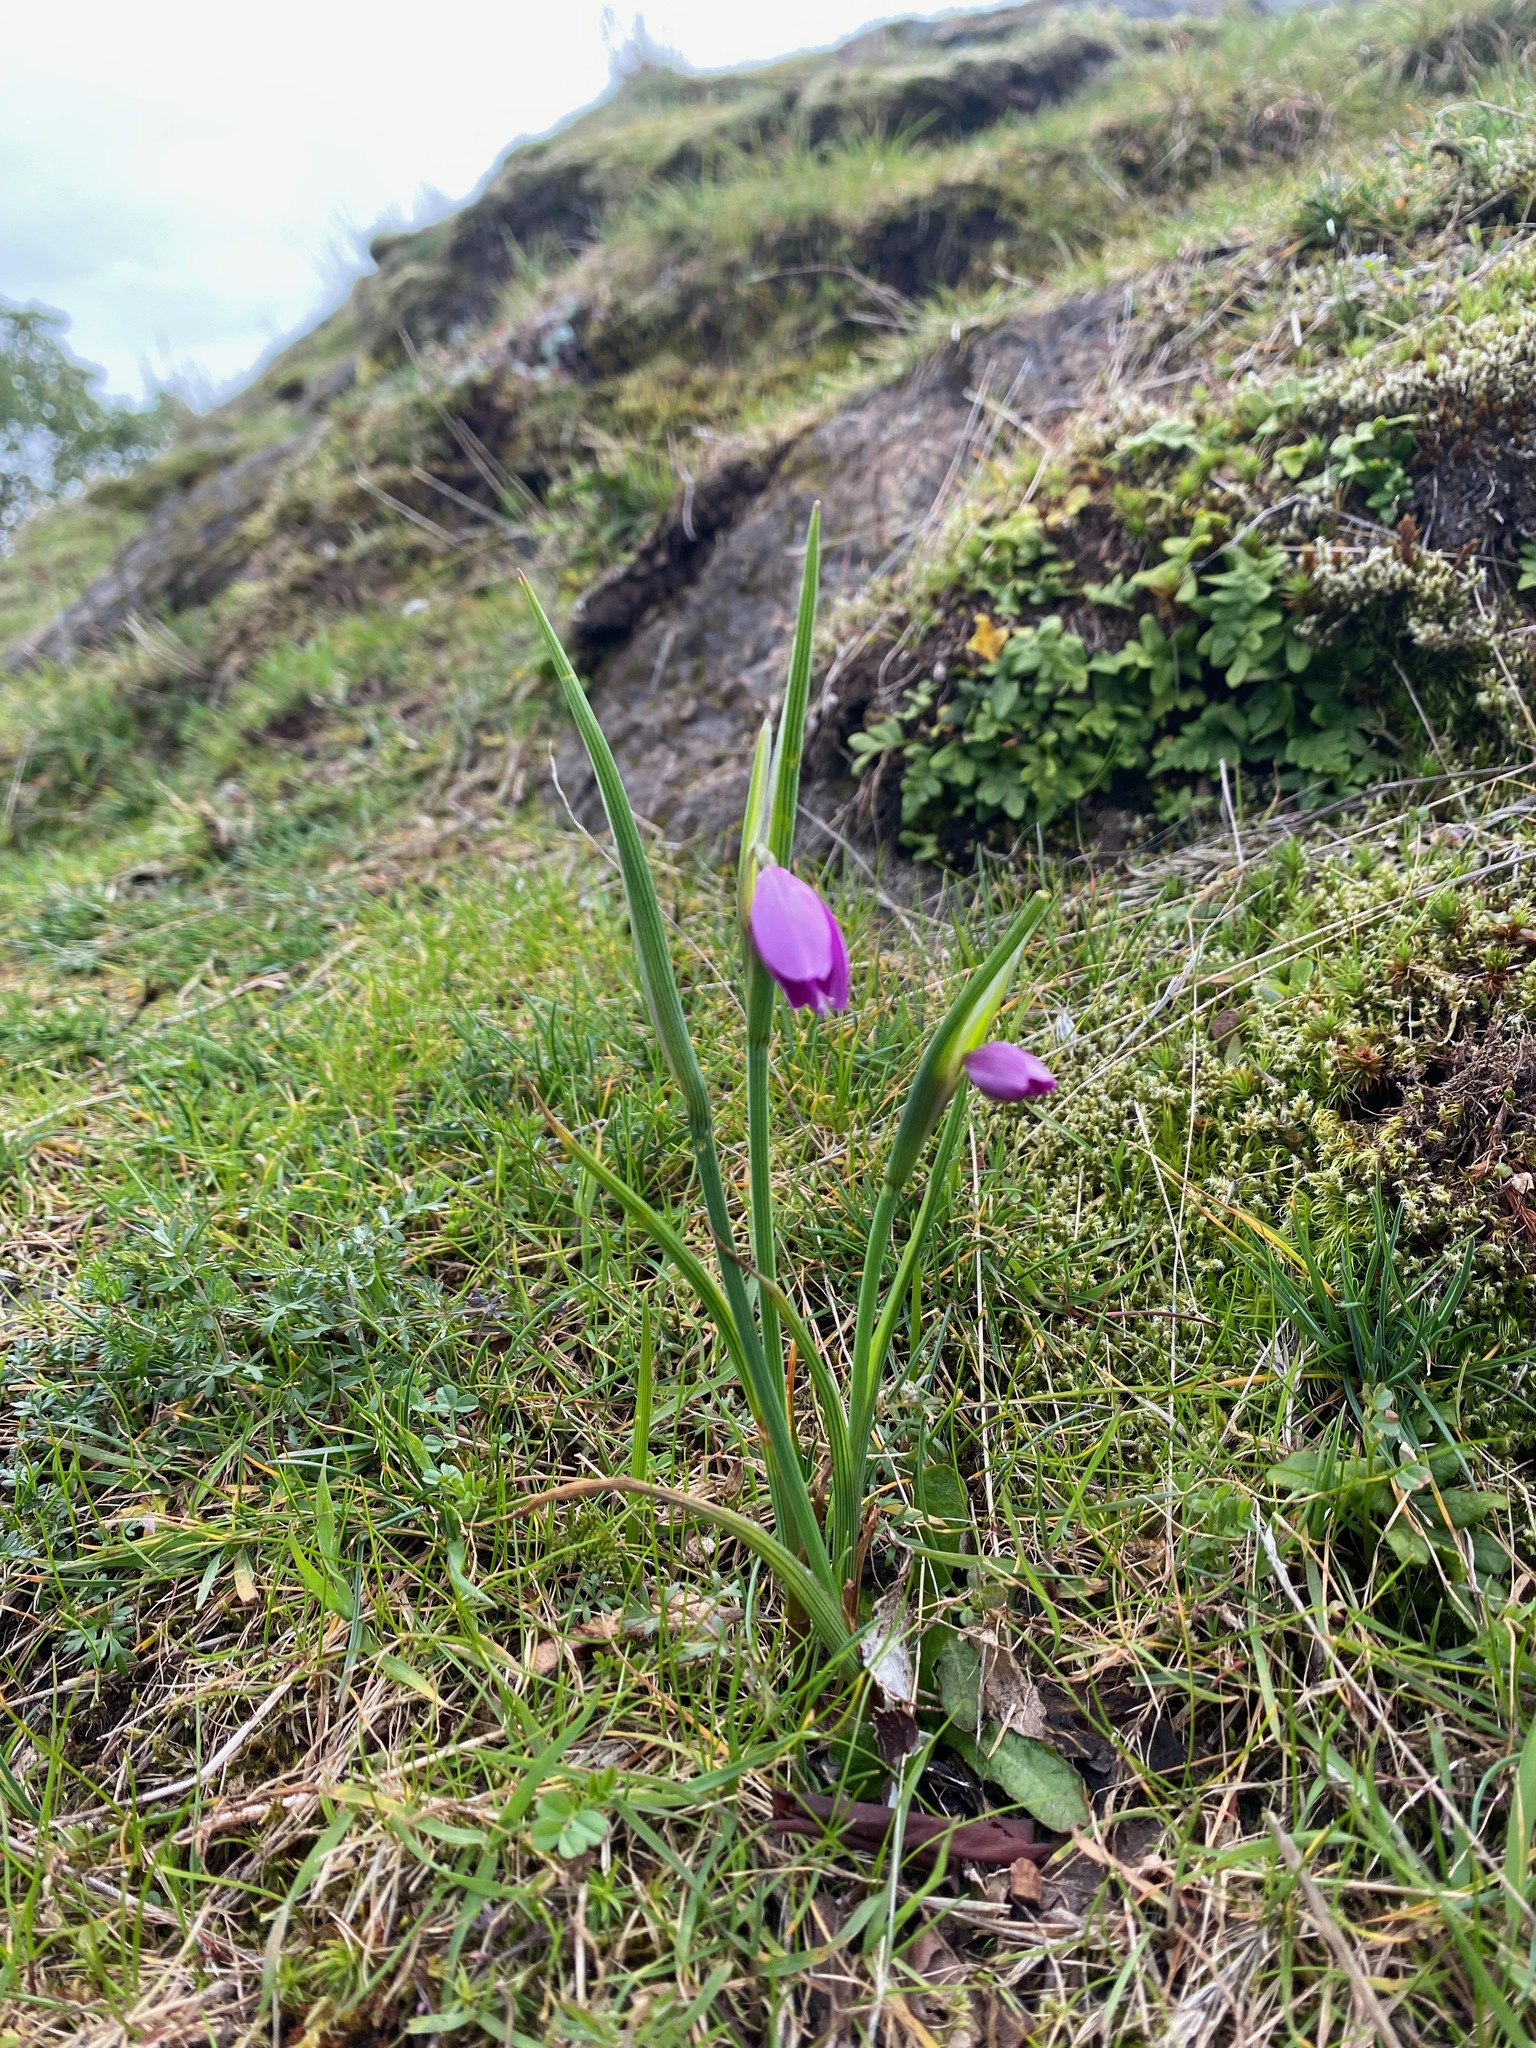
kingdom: Plantae
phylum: Tracheophyta
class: Liliopsida
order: Asparagales
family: Iridaceae
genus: Olsynium
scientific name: Olsynium douglasii
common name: Douglas' grasswidow
